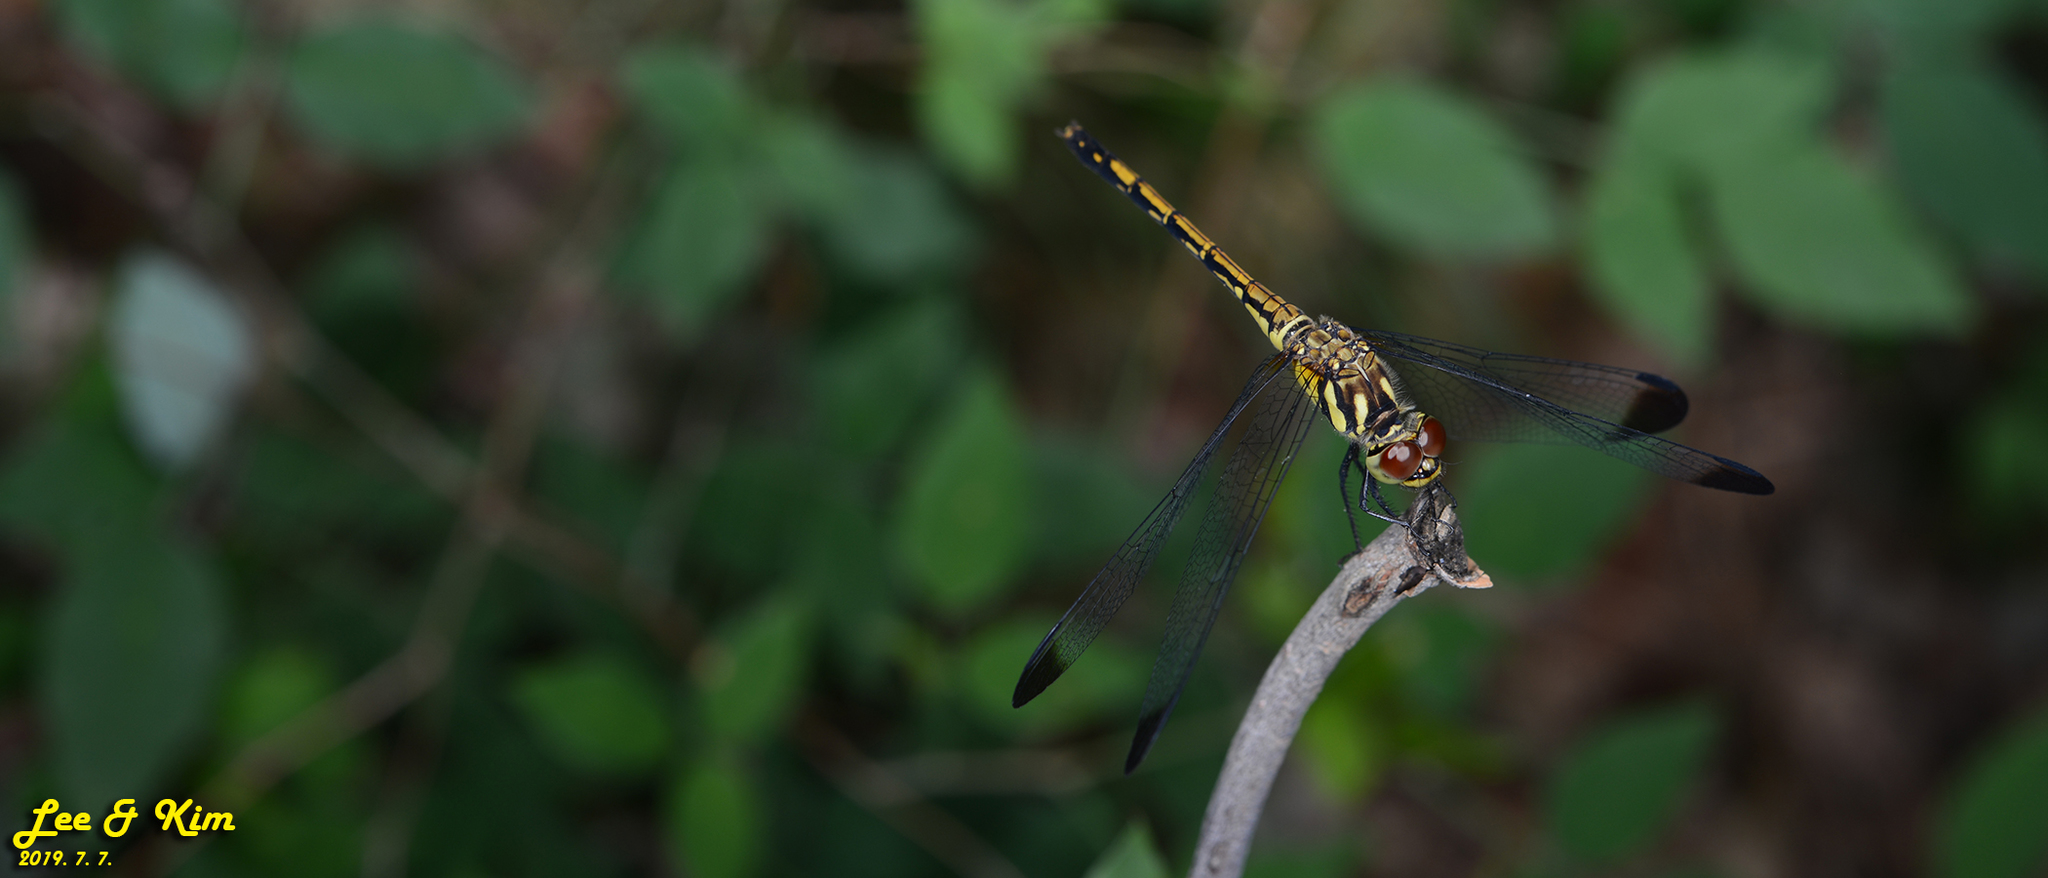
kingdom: Animalia
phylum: Arthropoda
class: Insecta
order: Odonata
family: Libellulidae
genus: Sympetrum
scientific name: Sympetrum infuscatum
